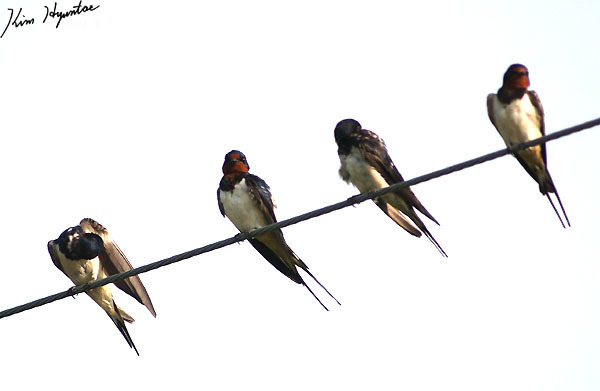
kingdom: Animalia
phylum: Chordata
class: Aves
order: Passeriformes
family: Hirundinidae
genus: Hirundo
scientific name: Hirundo rustica
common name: Barn swallow
